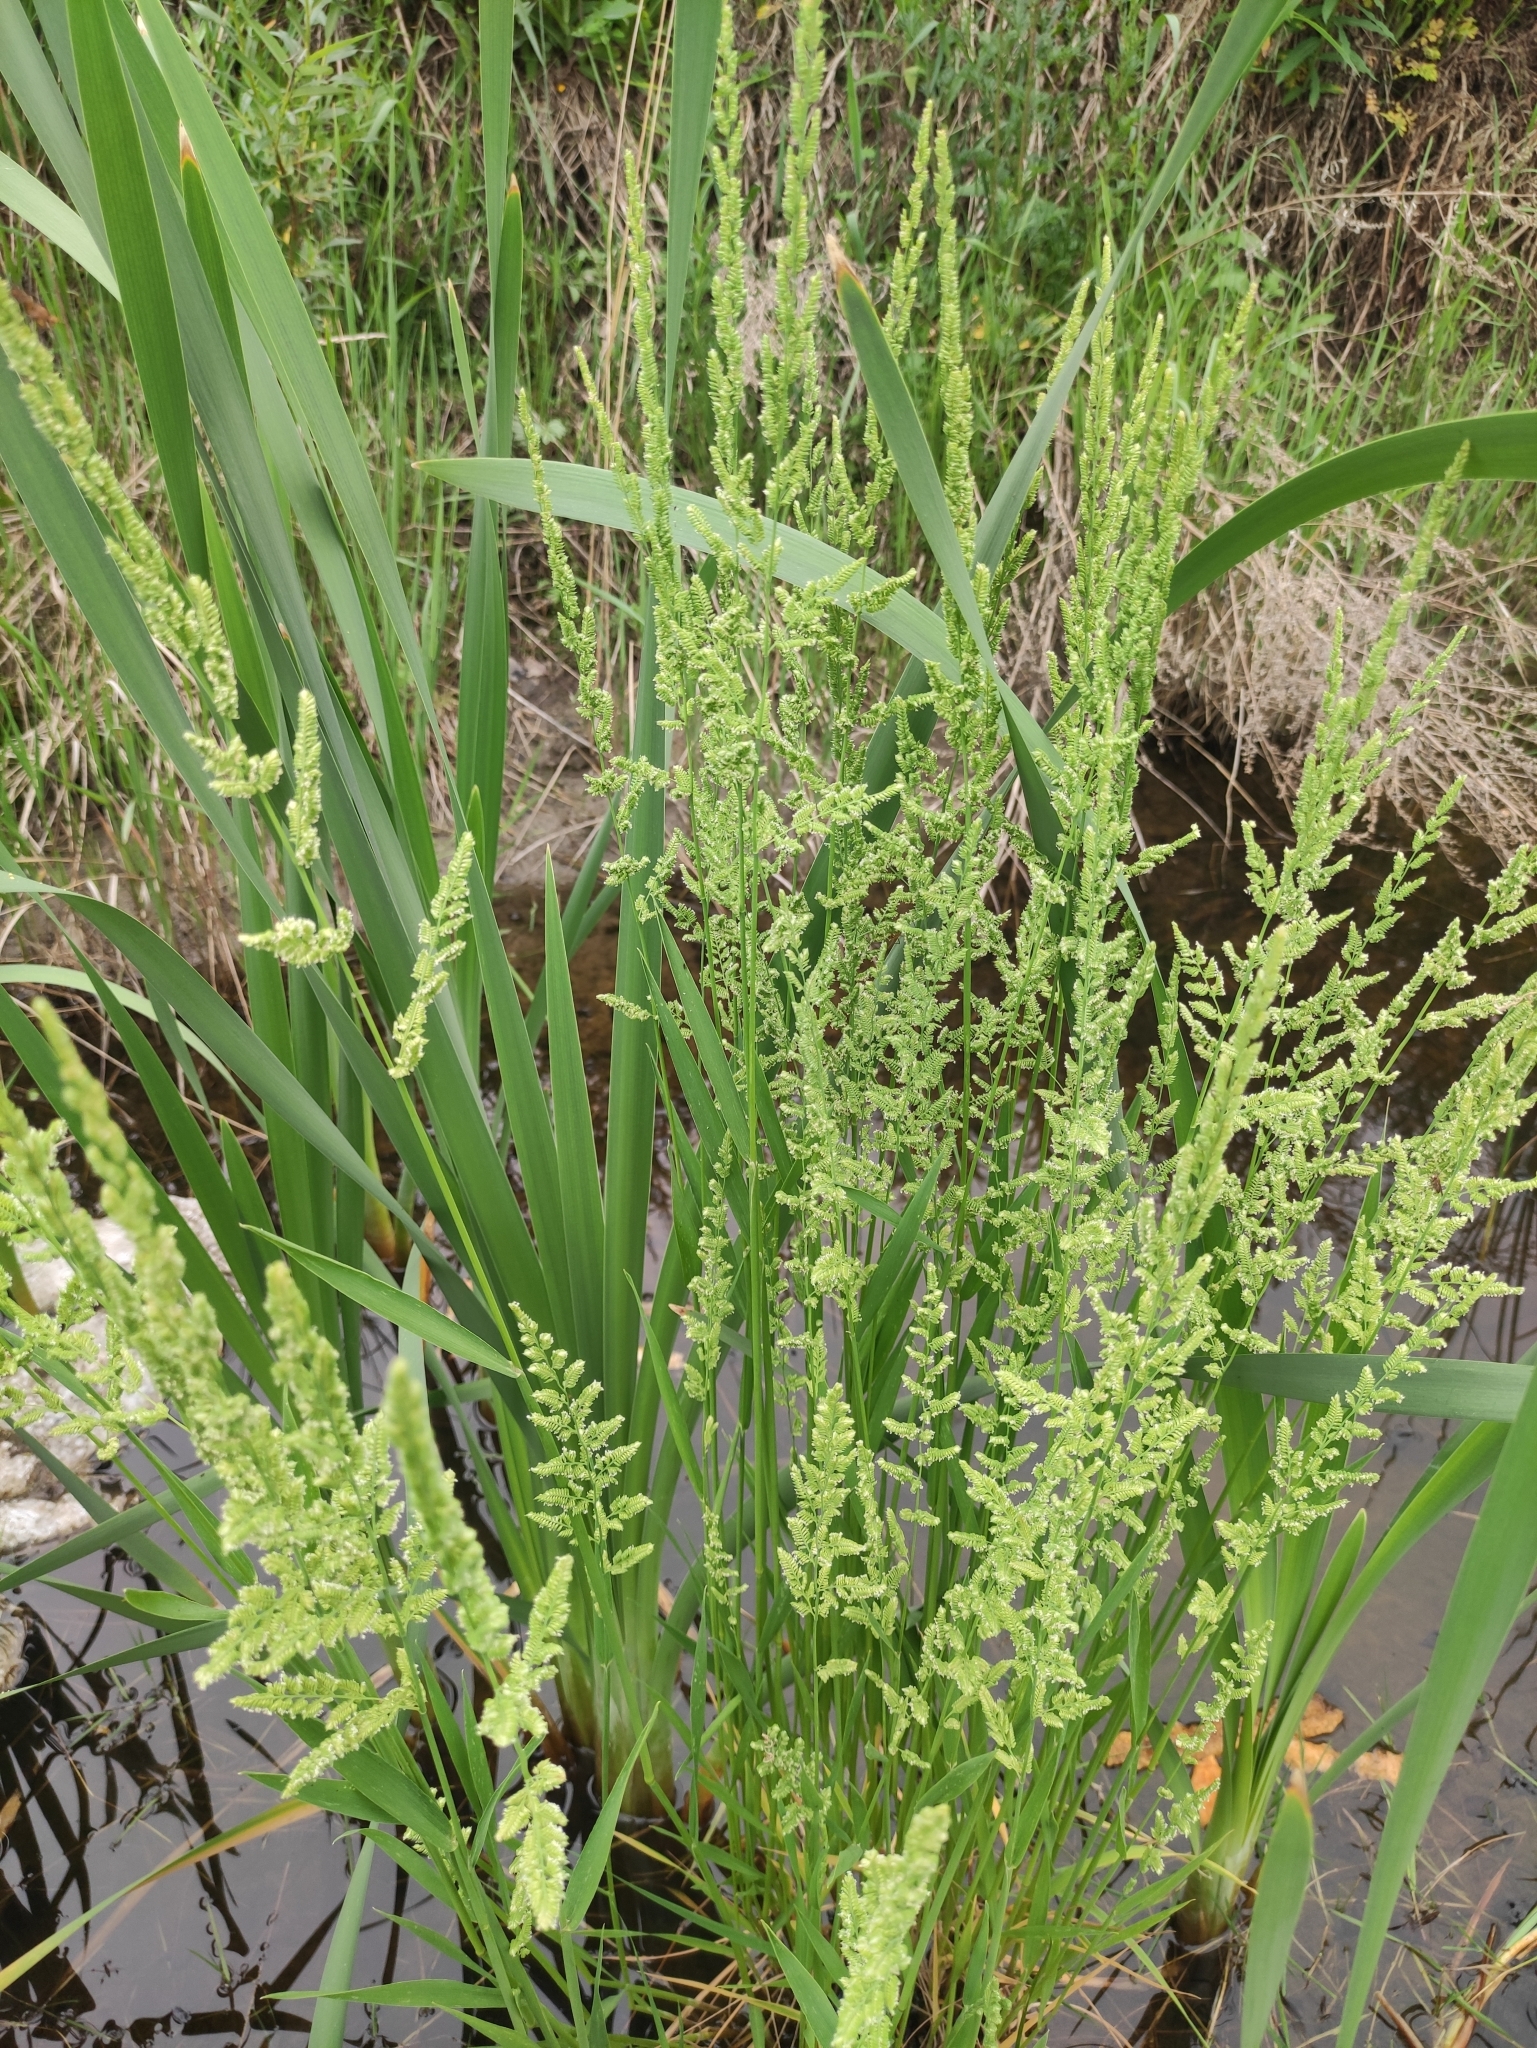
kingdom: Plantae
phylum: Tracheophyta
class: Liliopsida
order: Poales
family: Poaceae
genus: Beckmannia
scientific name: Beckmannia syzigachne
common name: American slough-grass
